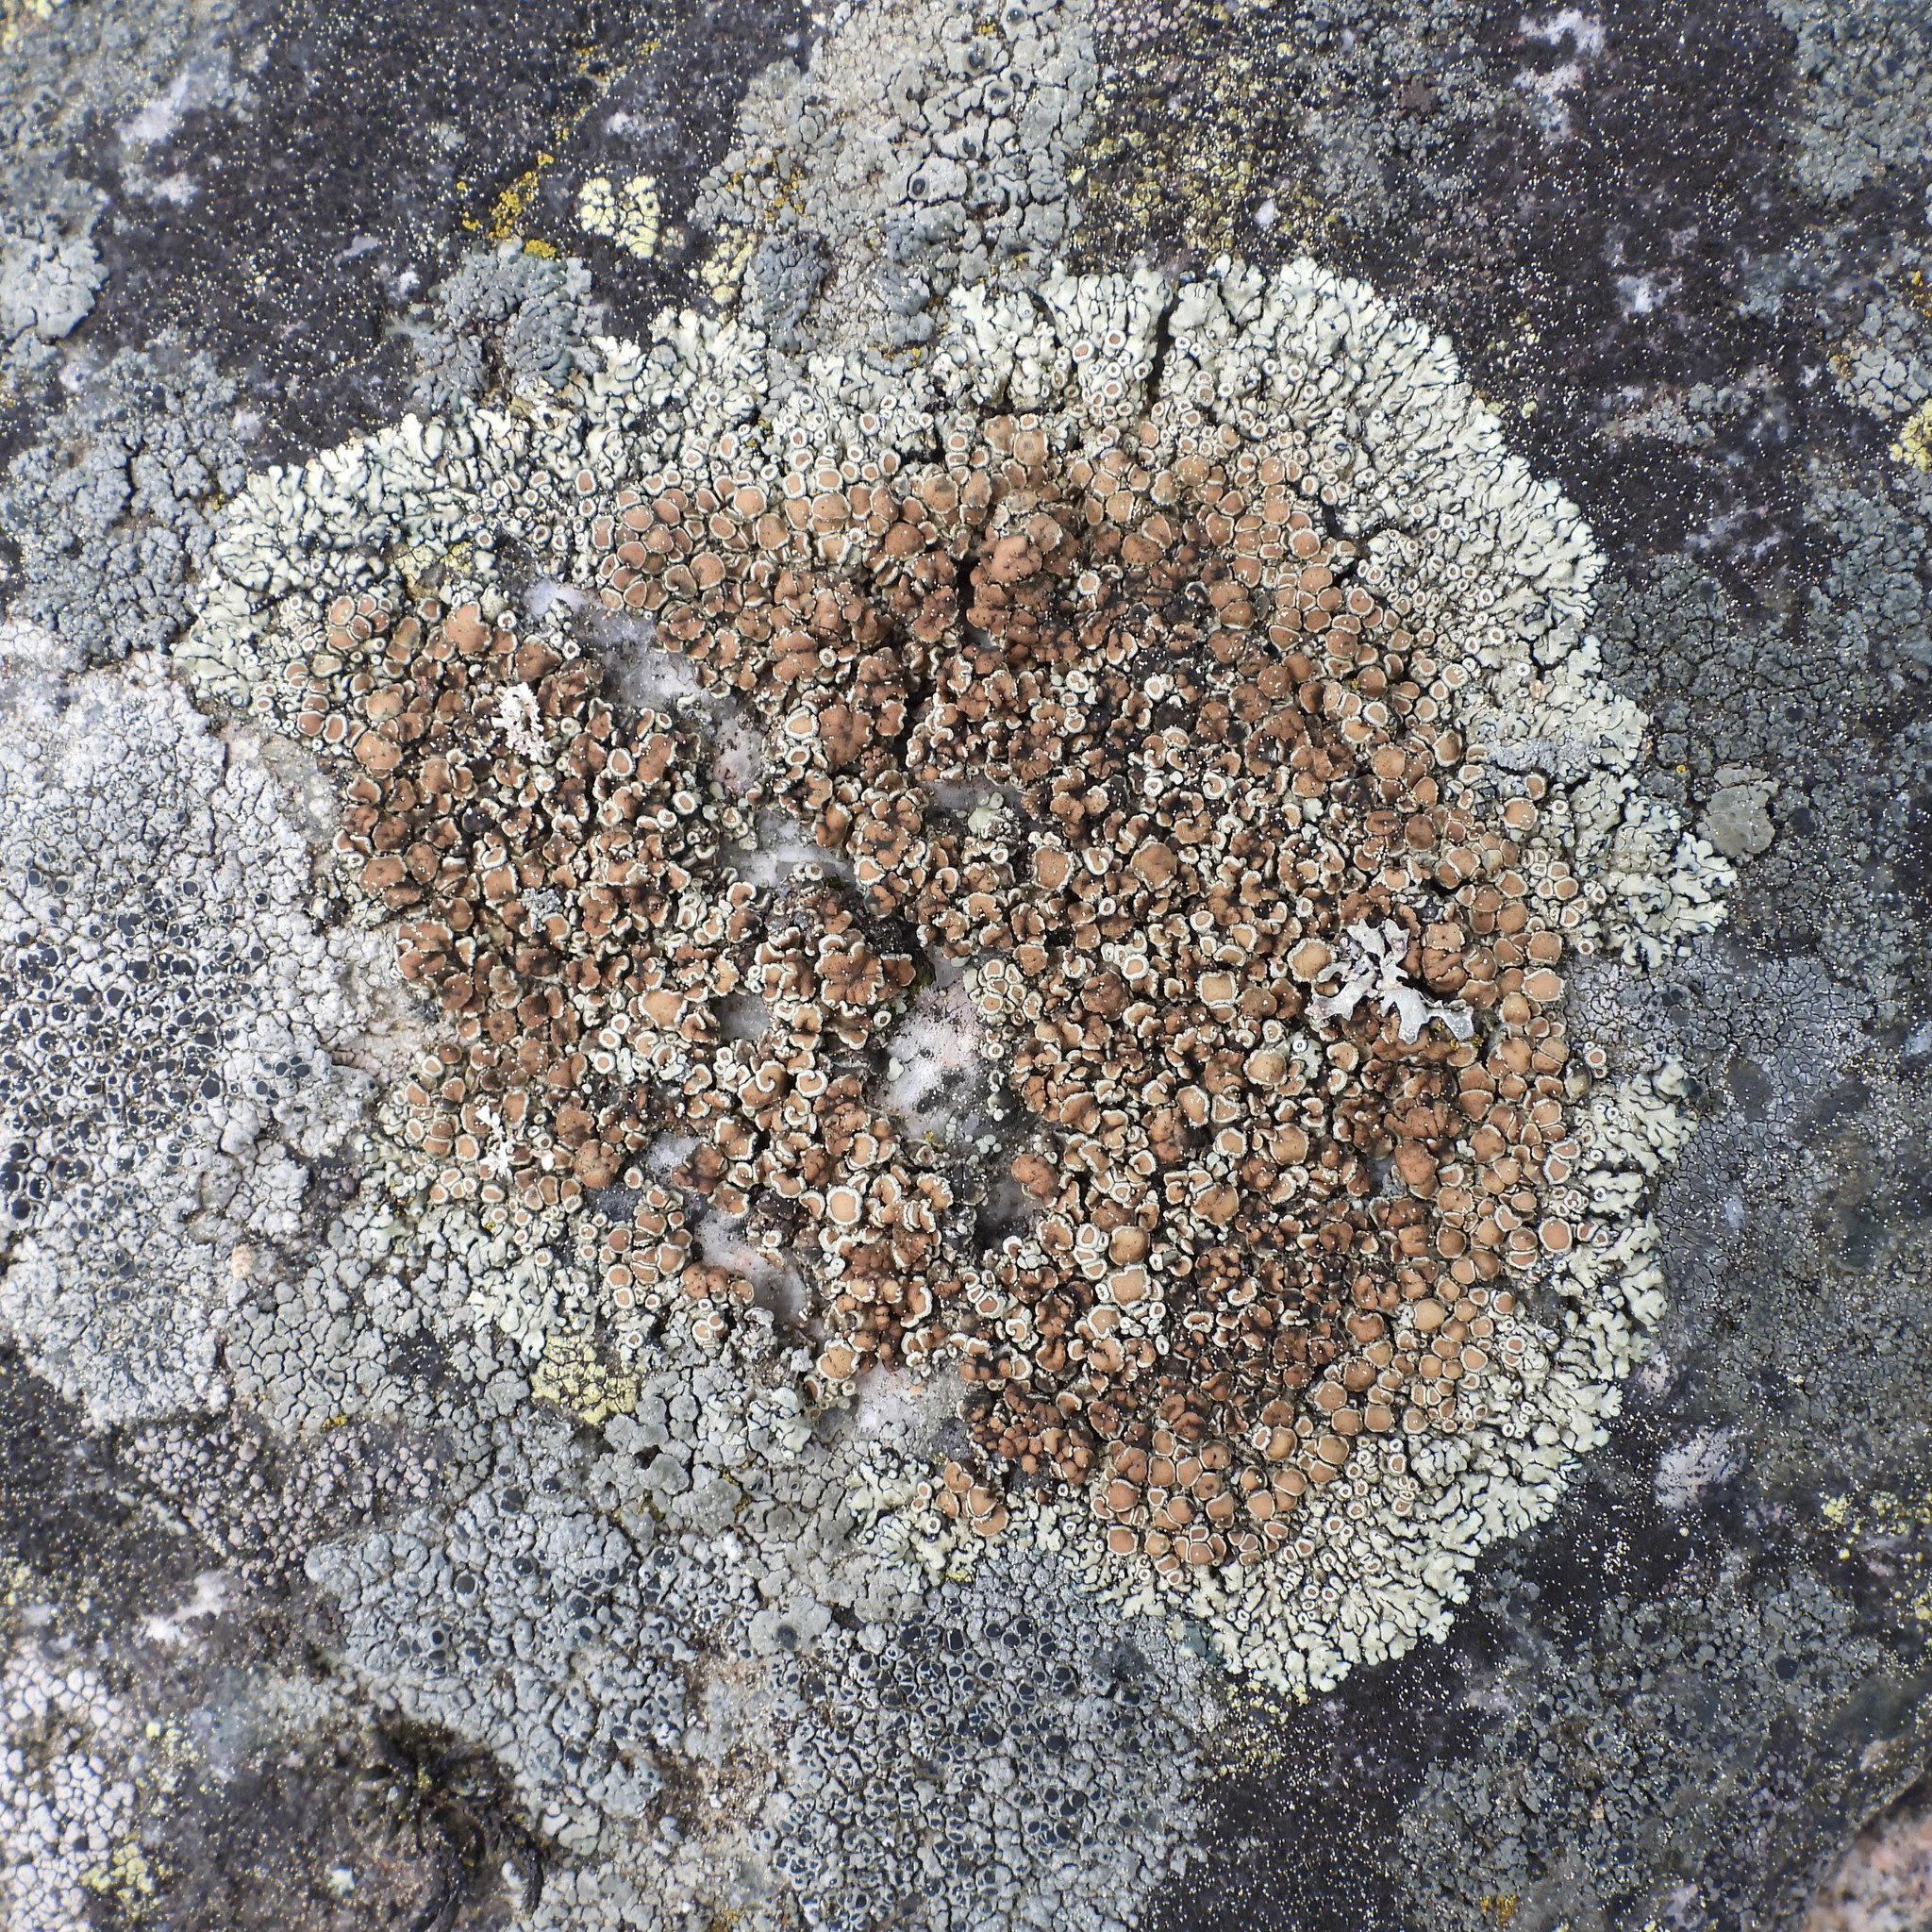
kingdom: Fungi
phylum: Ascomycota
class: Lecanoromycetes
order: Lecanorales
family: Lecanoraceae
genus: Protoparmeliopsis
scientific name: Protoparmeliopsis muralis
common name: Stonewall rim lichen
